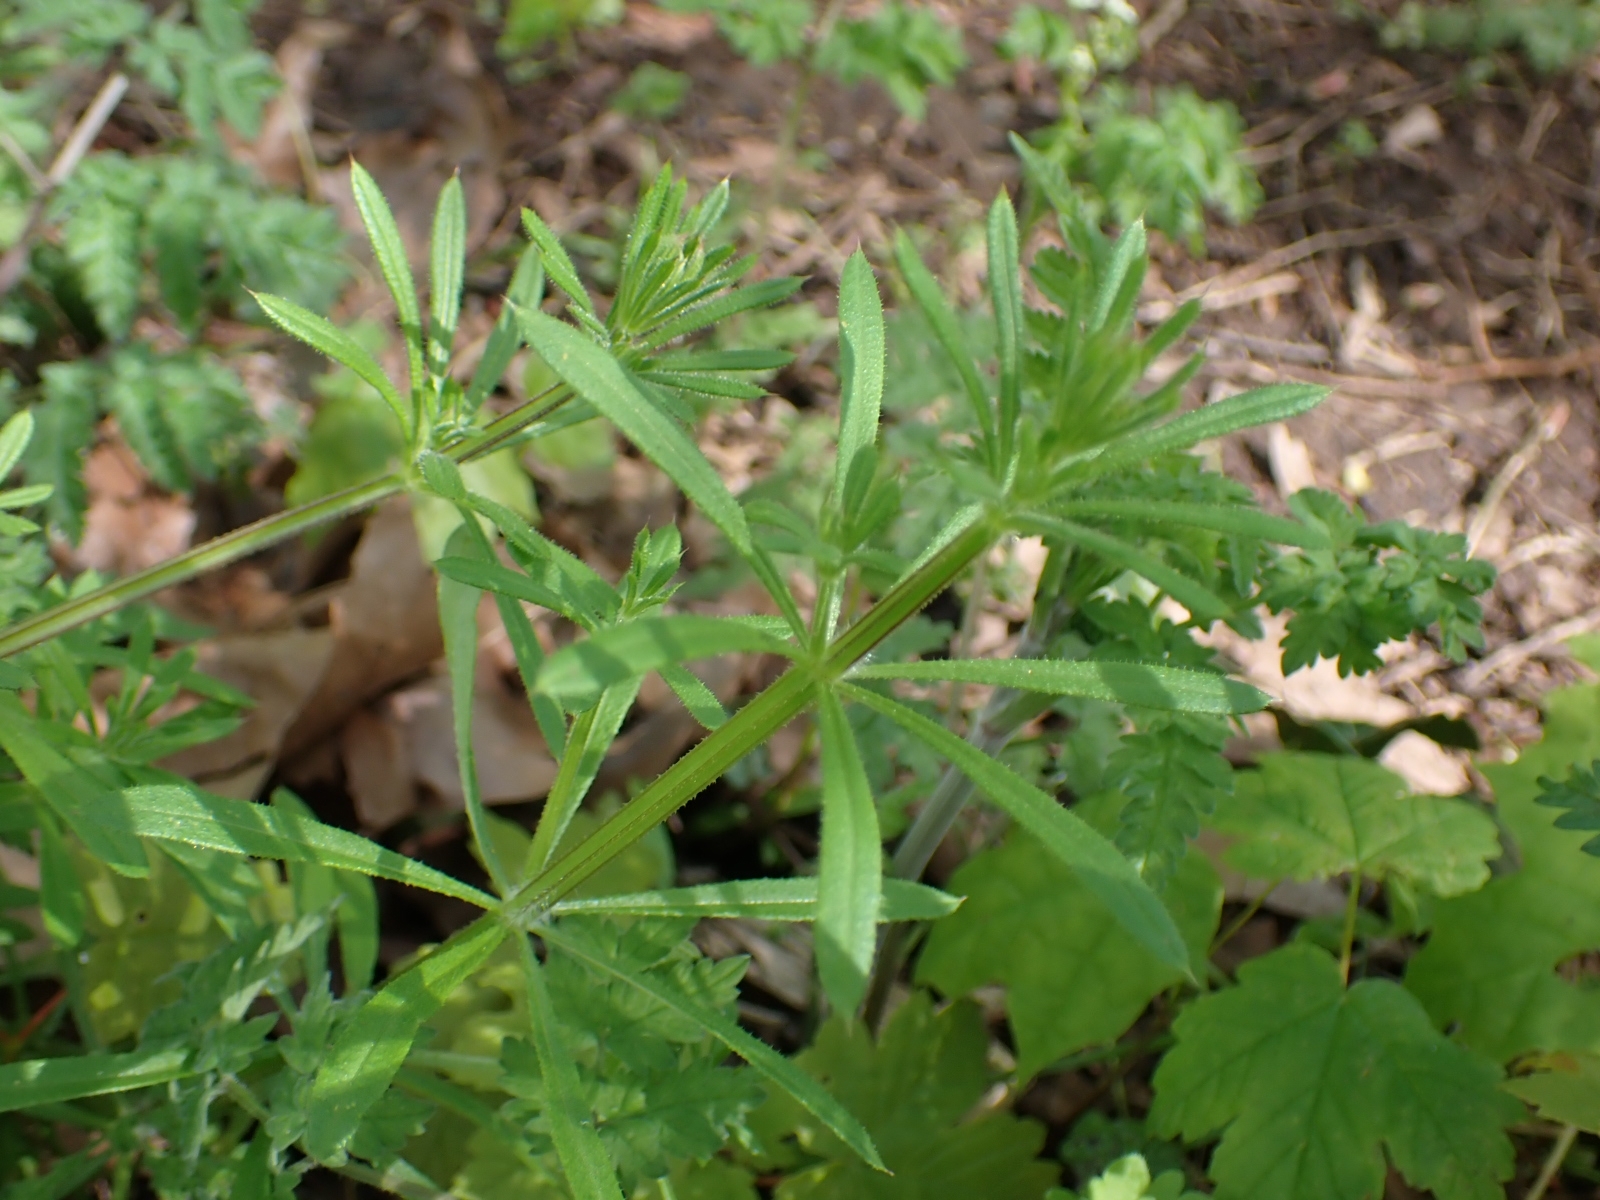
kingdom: Plantae
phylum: Tracheophyta
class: Magnoliopsida
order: Gentianales
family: Rubiaceae
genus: Galium
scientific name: Galium aparine
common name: Cleavers
